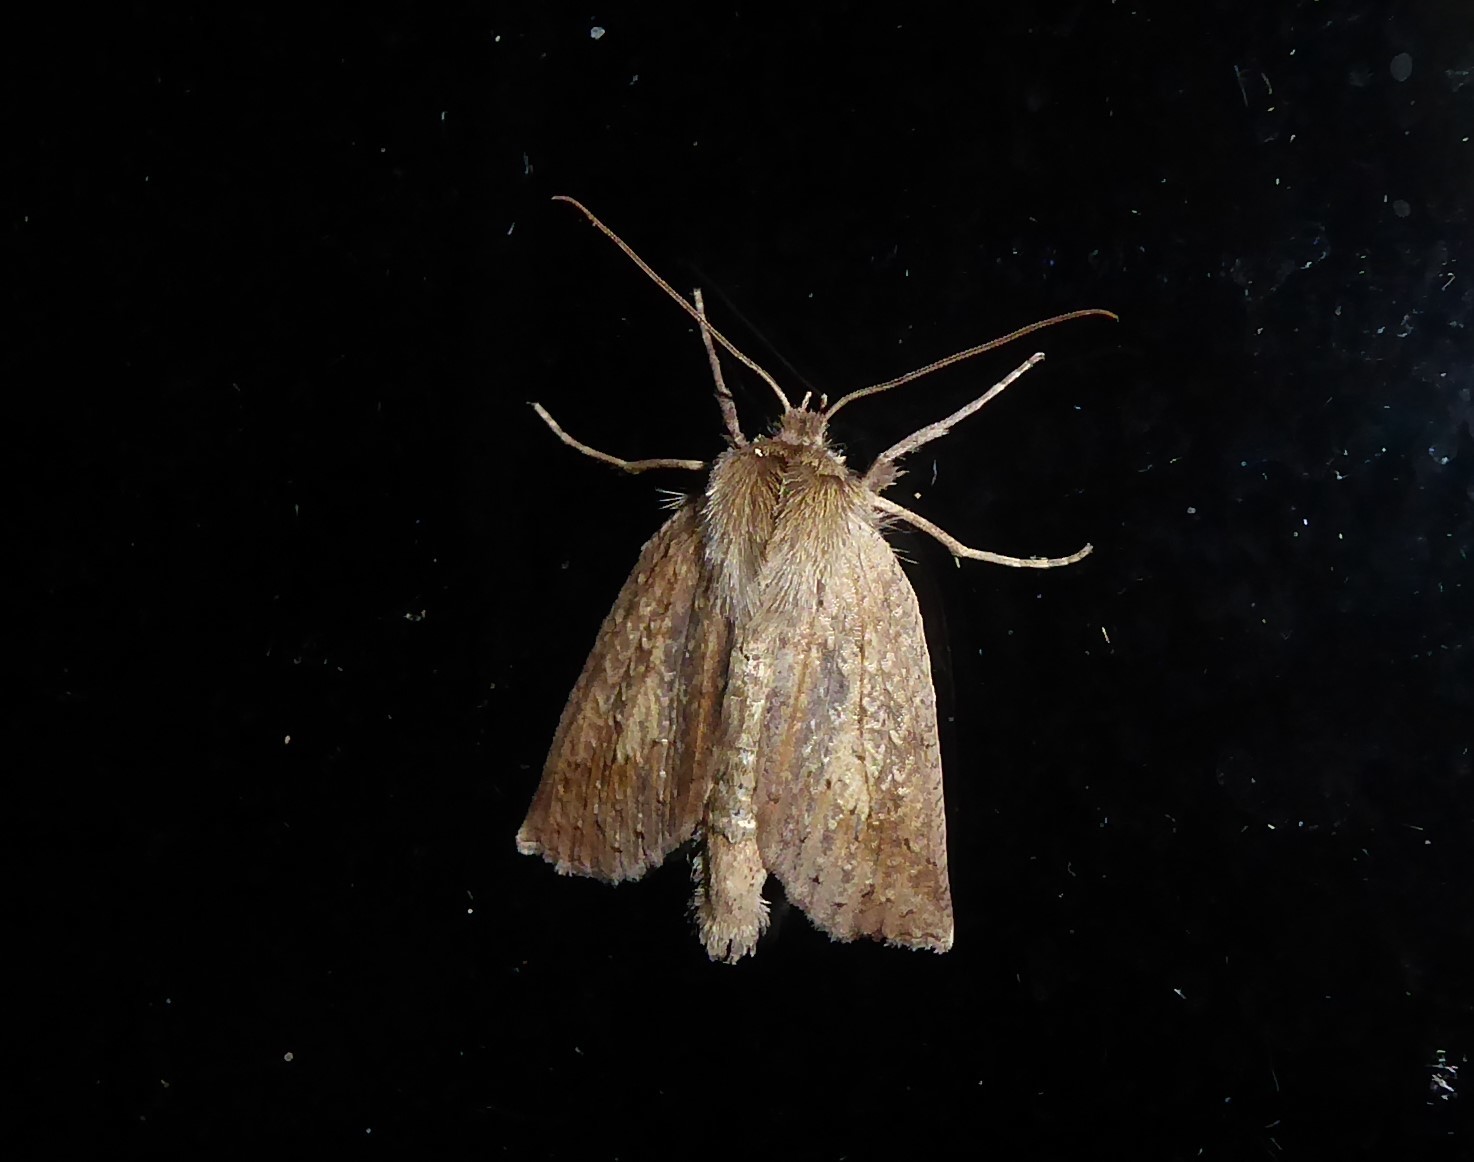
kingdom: Animalia
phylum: Arthropoda
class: Insecta
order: Lepidoptera
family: Geometridae
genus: Declana
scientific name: Declana leptomera
